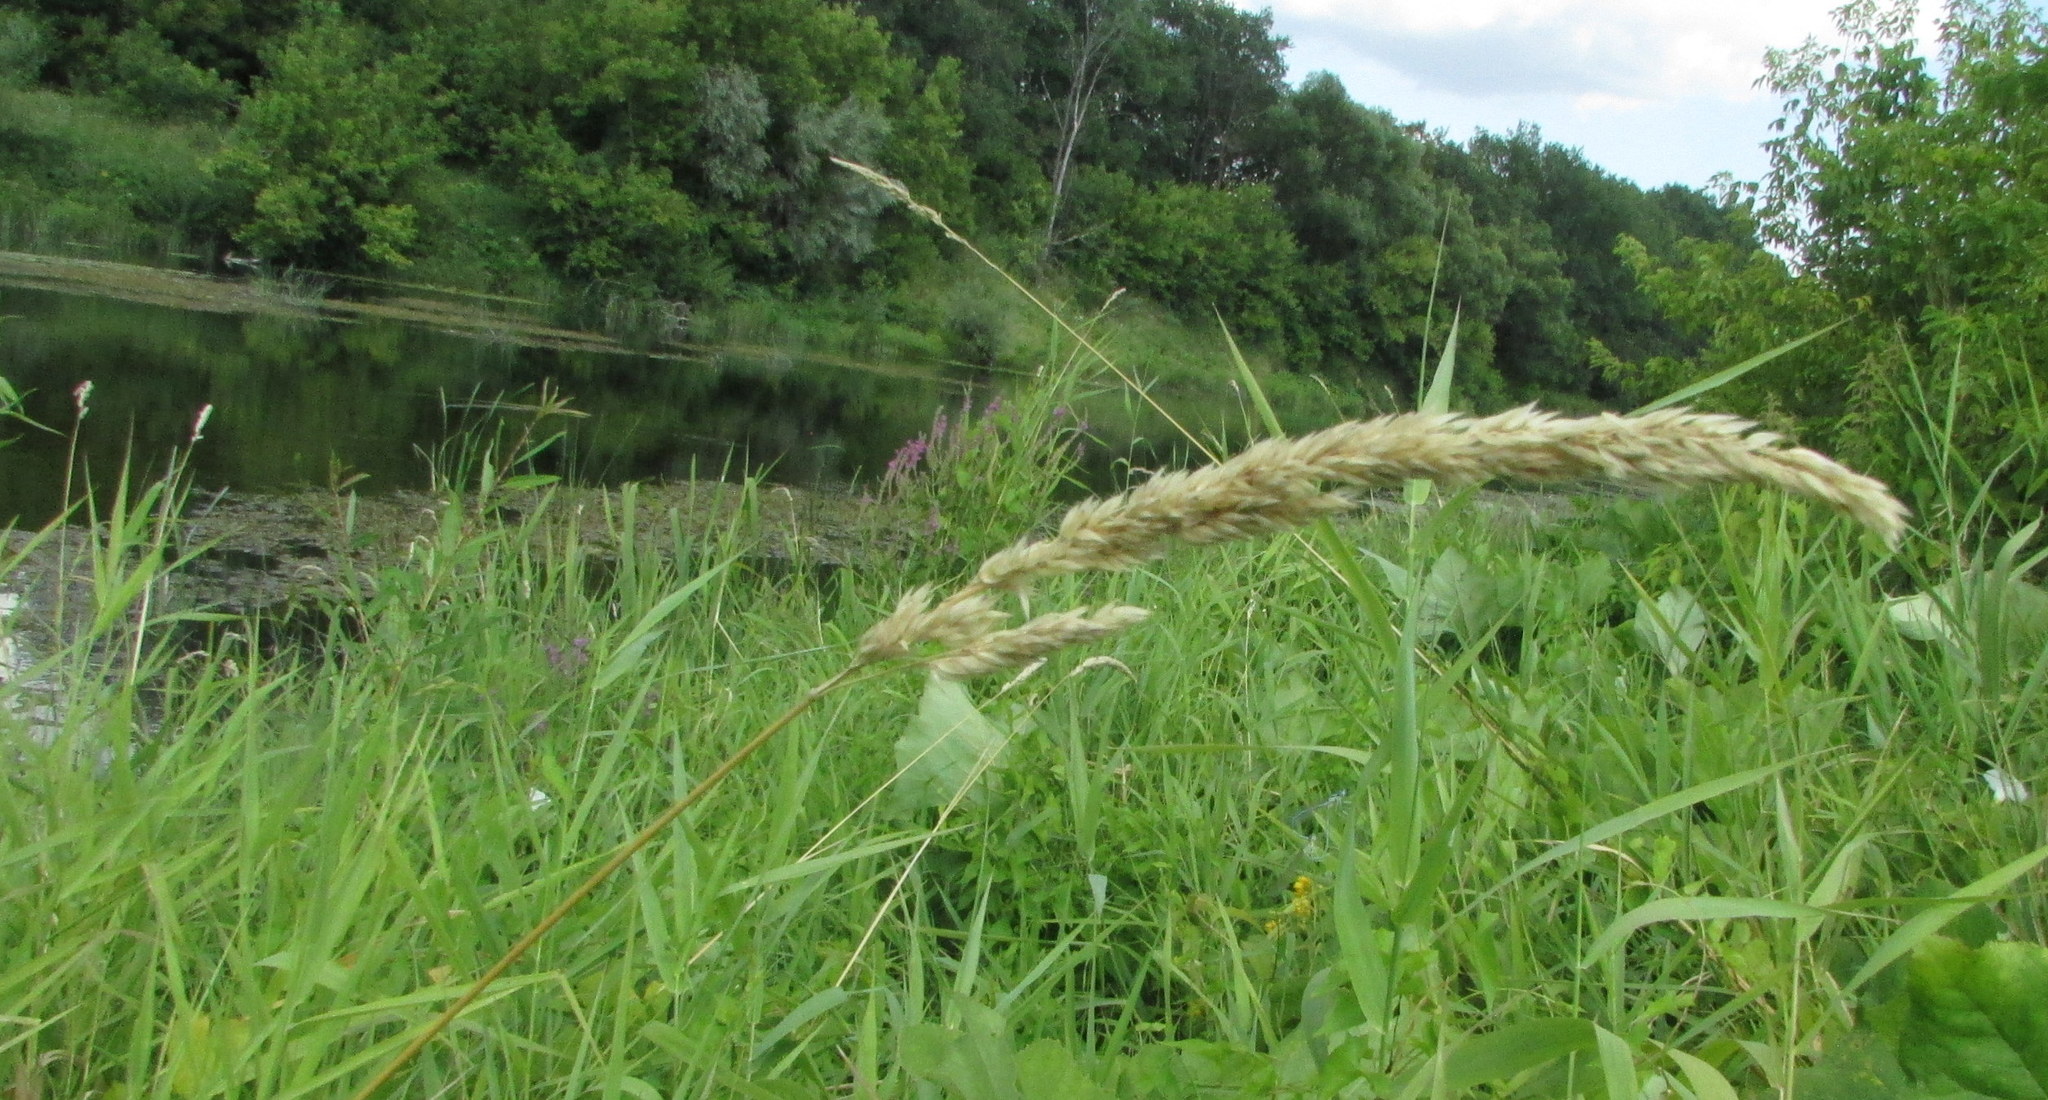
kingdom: Plantae
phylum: Tracheophyta
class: Liliopsida
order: Poales
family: Poaceae
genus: Phalaris
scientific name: Phalaris arundinacea
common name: Reed canary-grass
